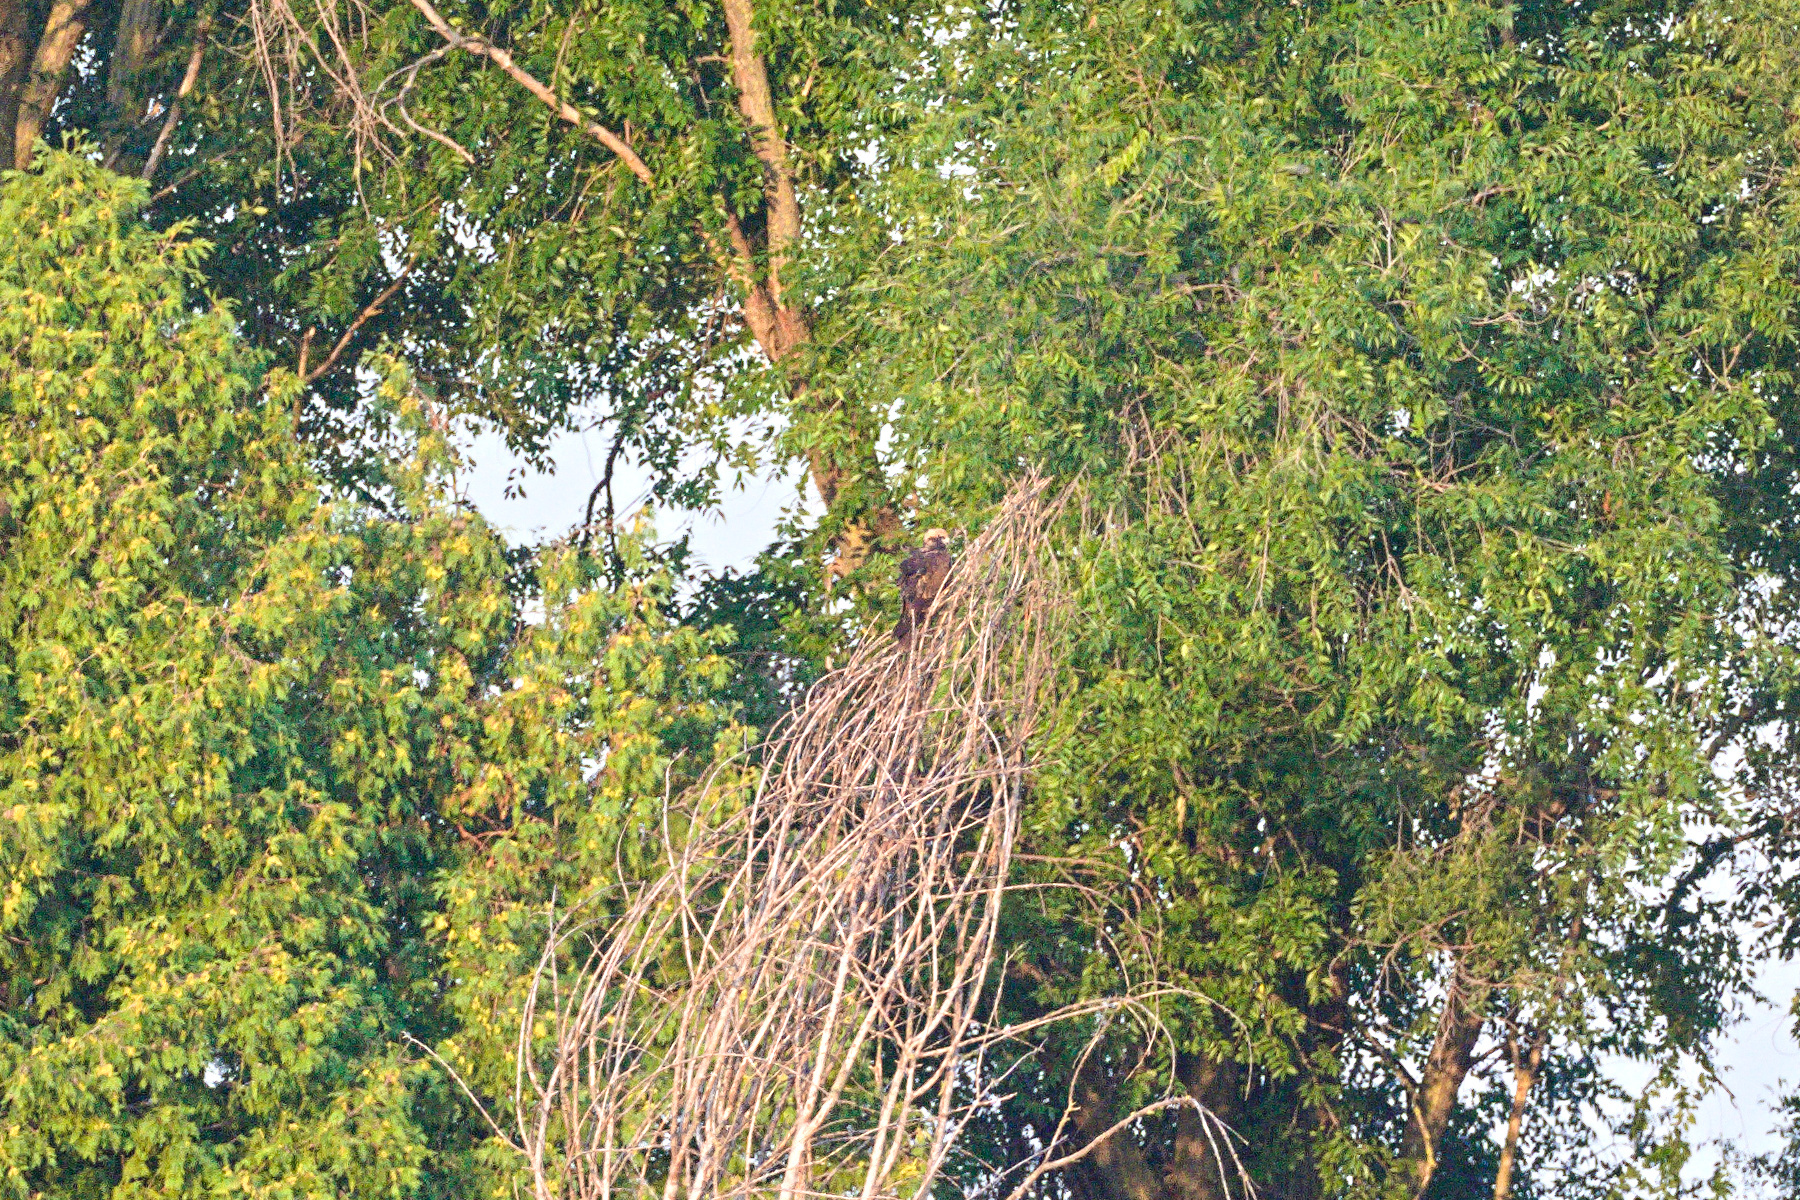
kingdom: Animalia
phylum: Chordata
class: Aves
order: Accipitriformes
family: Accipitridae
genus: Circus
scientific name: Circus aeruginosus
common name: Western marsh harrier
